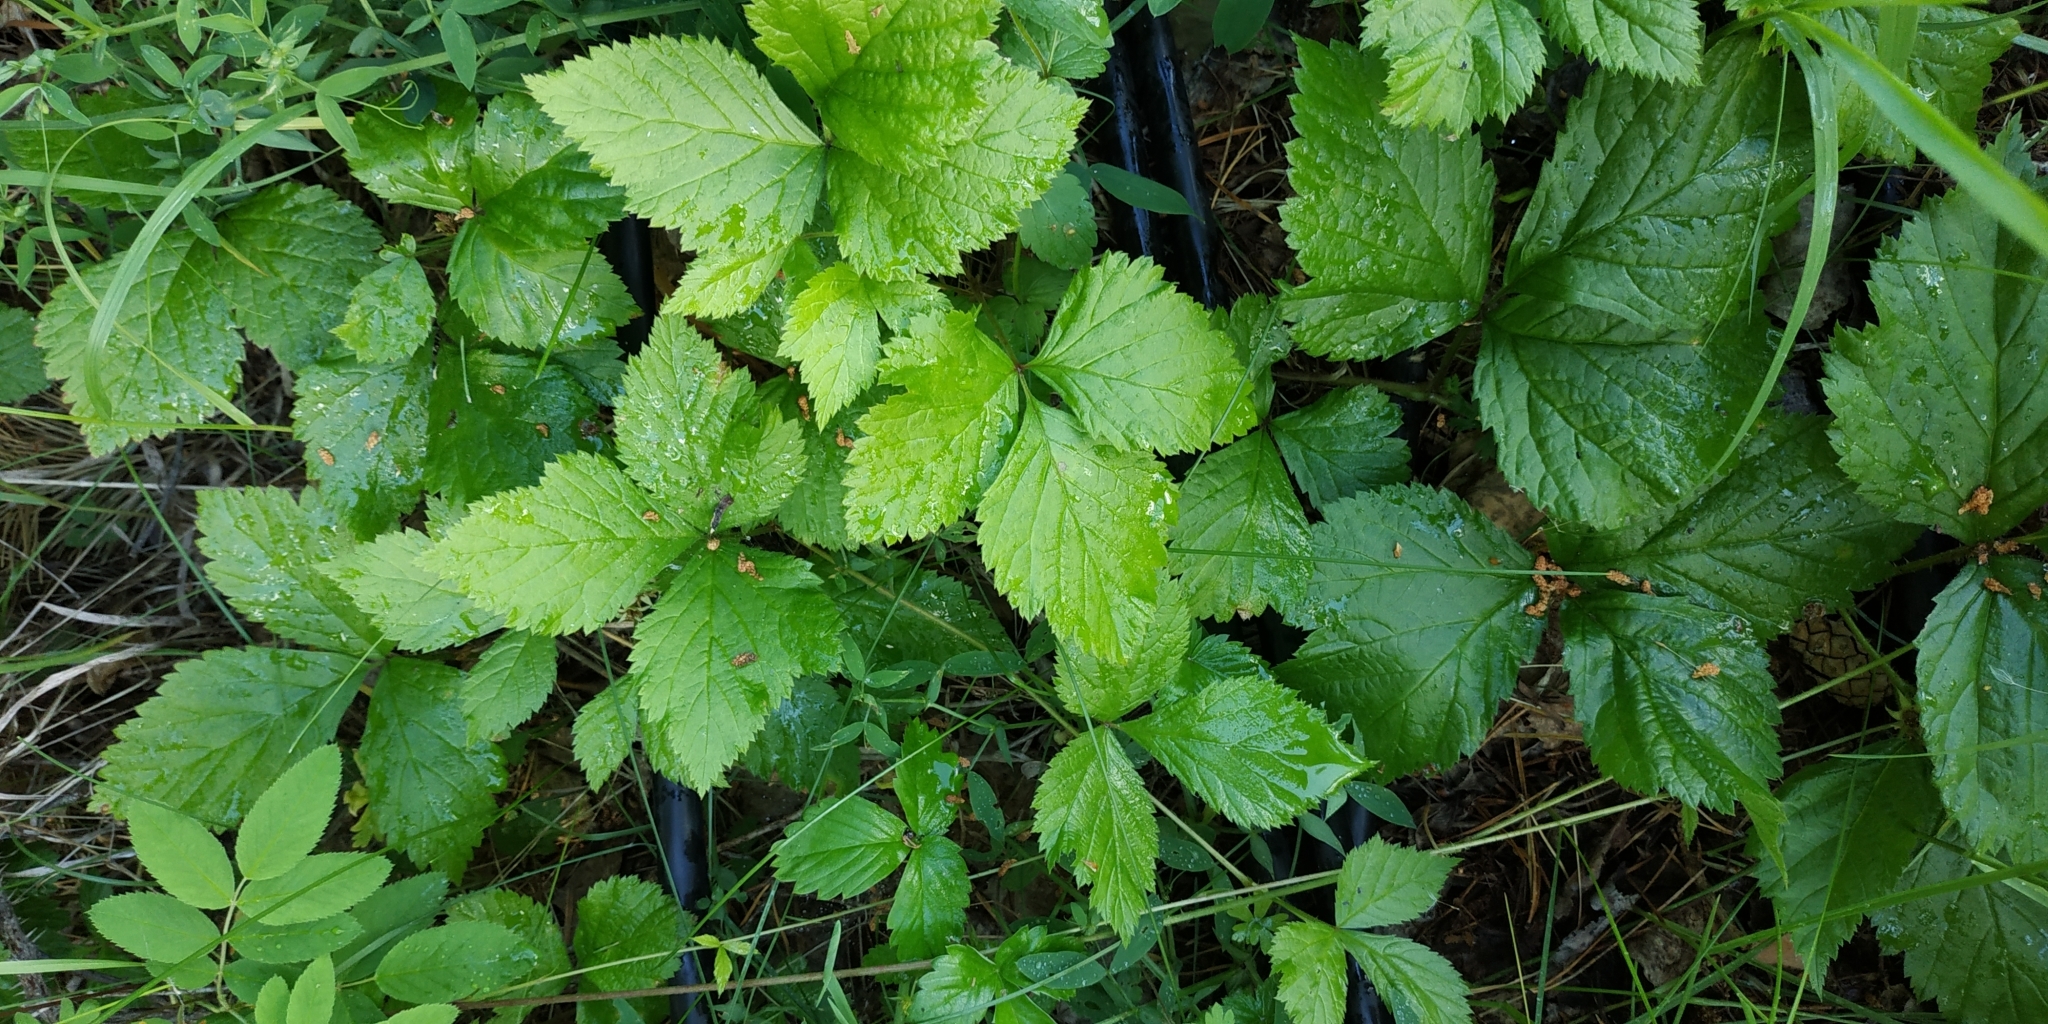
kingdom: Plantae
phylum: Tracheophyta
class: Magnoliopsida
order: Rosales
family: Rosaceae
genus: Rubus
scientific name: Rubus saxatilis
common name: Stone bramble
